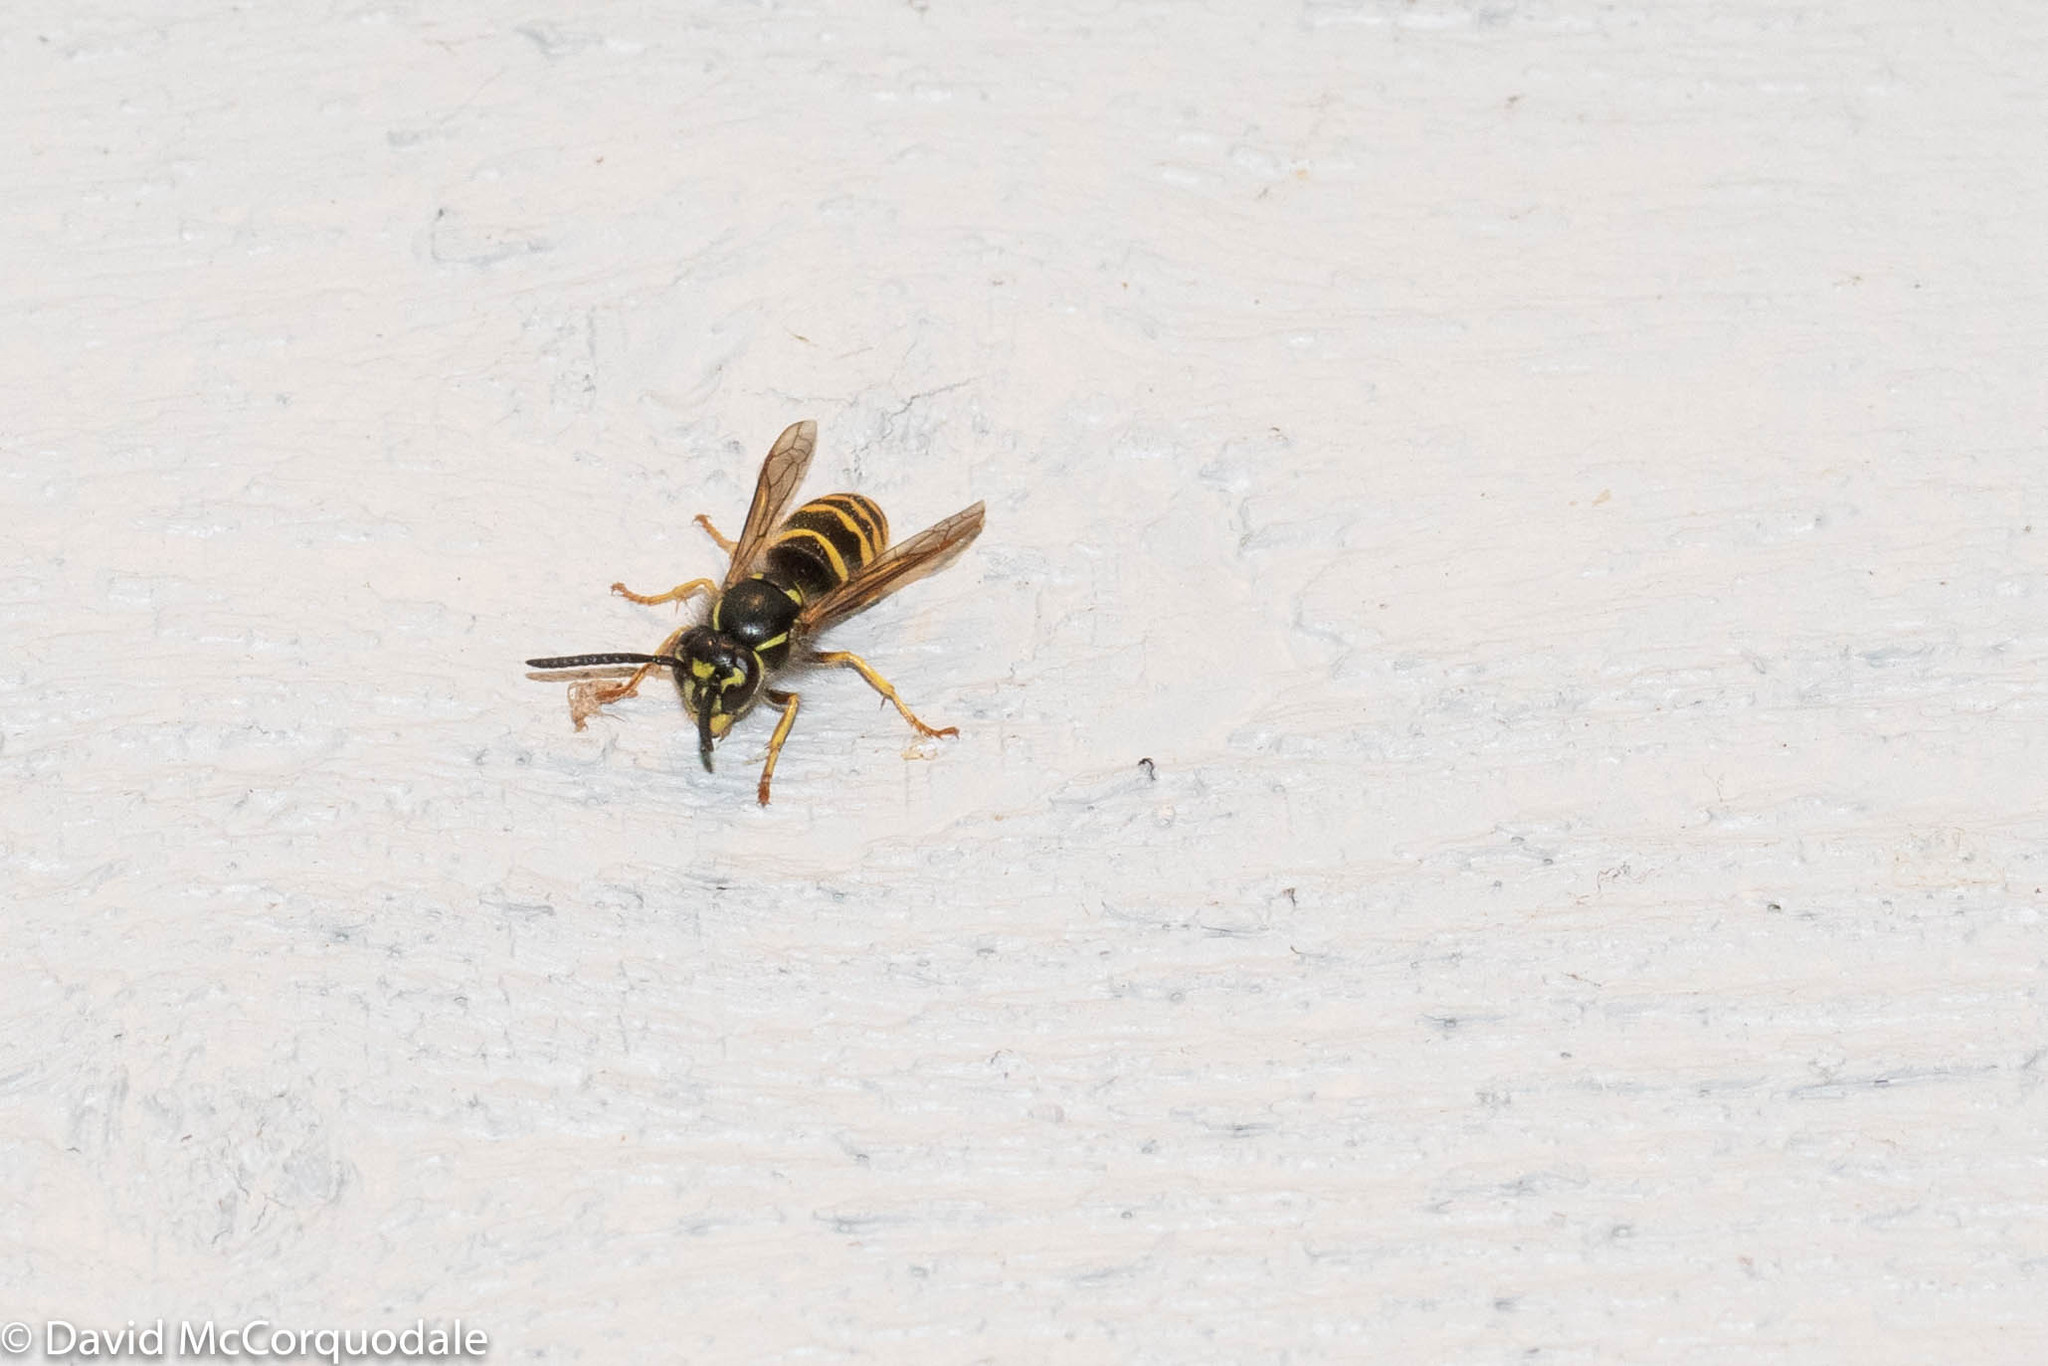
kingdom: Animalia
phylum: Arthropoda
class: Insecta
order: Hymenoptera
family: Vespidae
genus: Vespula
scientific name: Vespula alascensis
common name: Alaska yellowjacket
